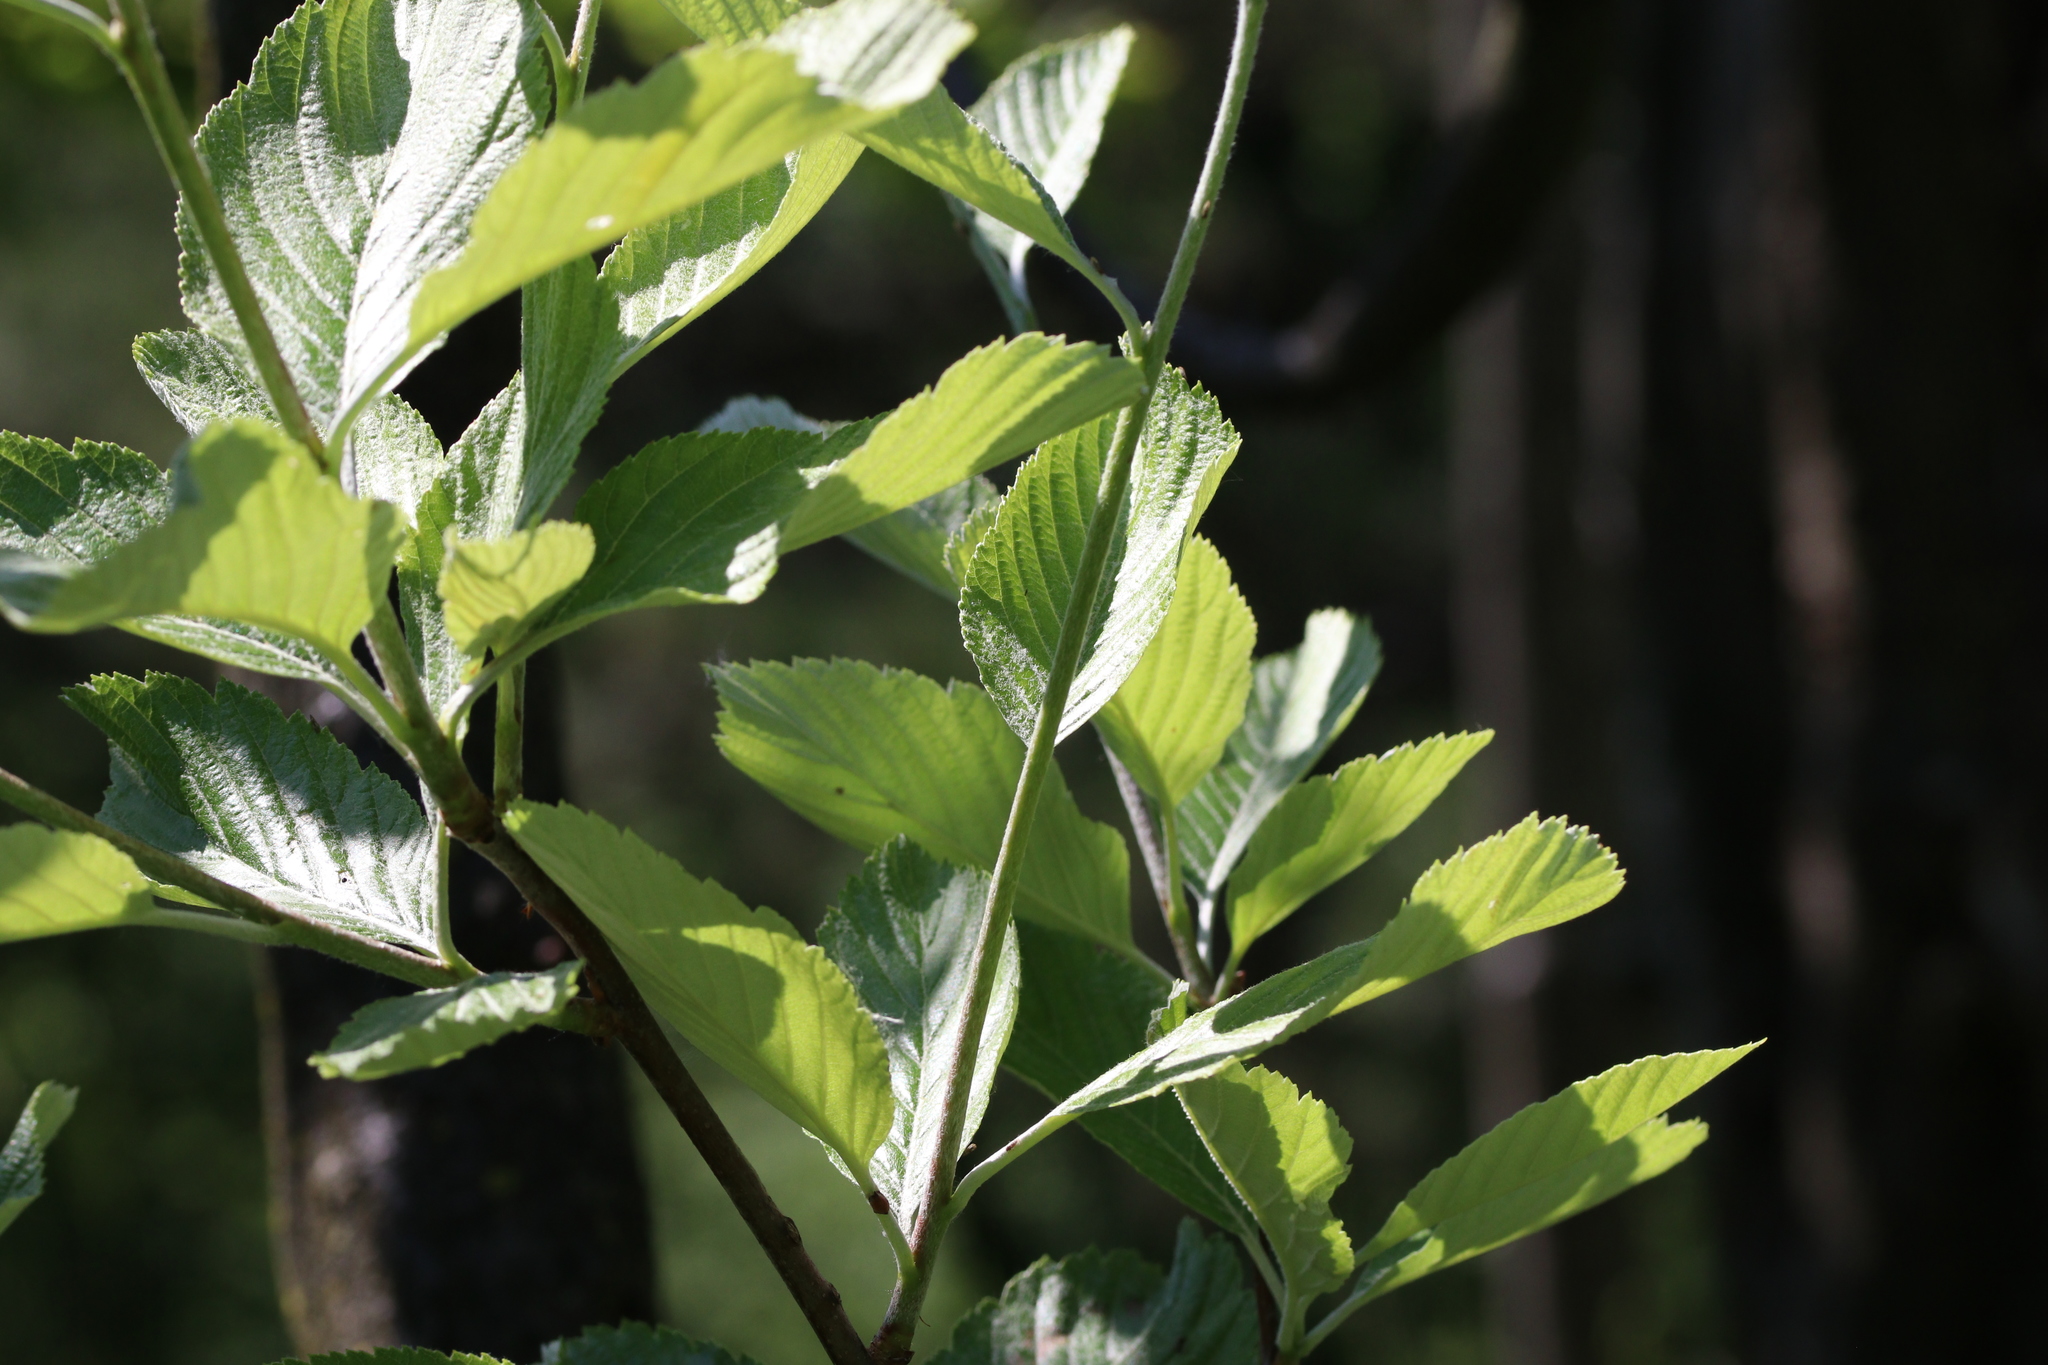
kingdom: Plantae
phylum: Tracheophyta
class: Magnoliopsida
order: Rosales
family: Rosaceae
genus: Aria
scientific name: Aria edulis
